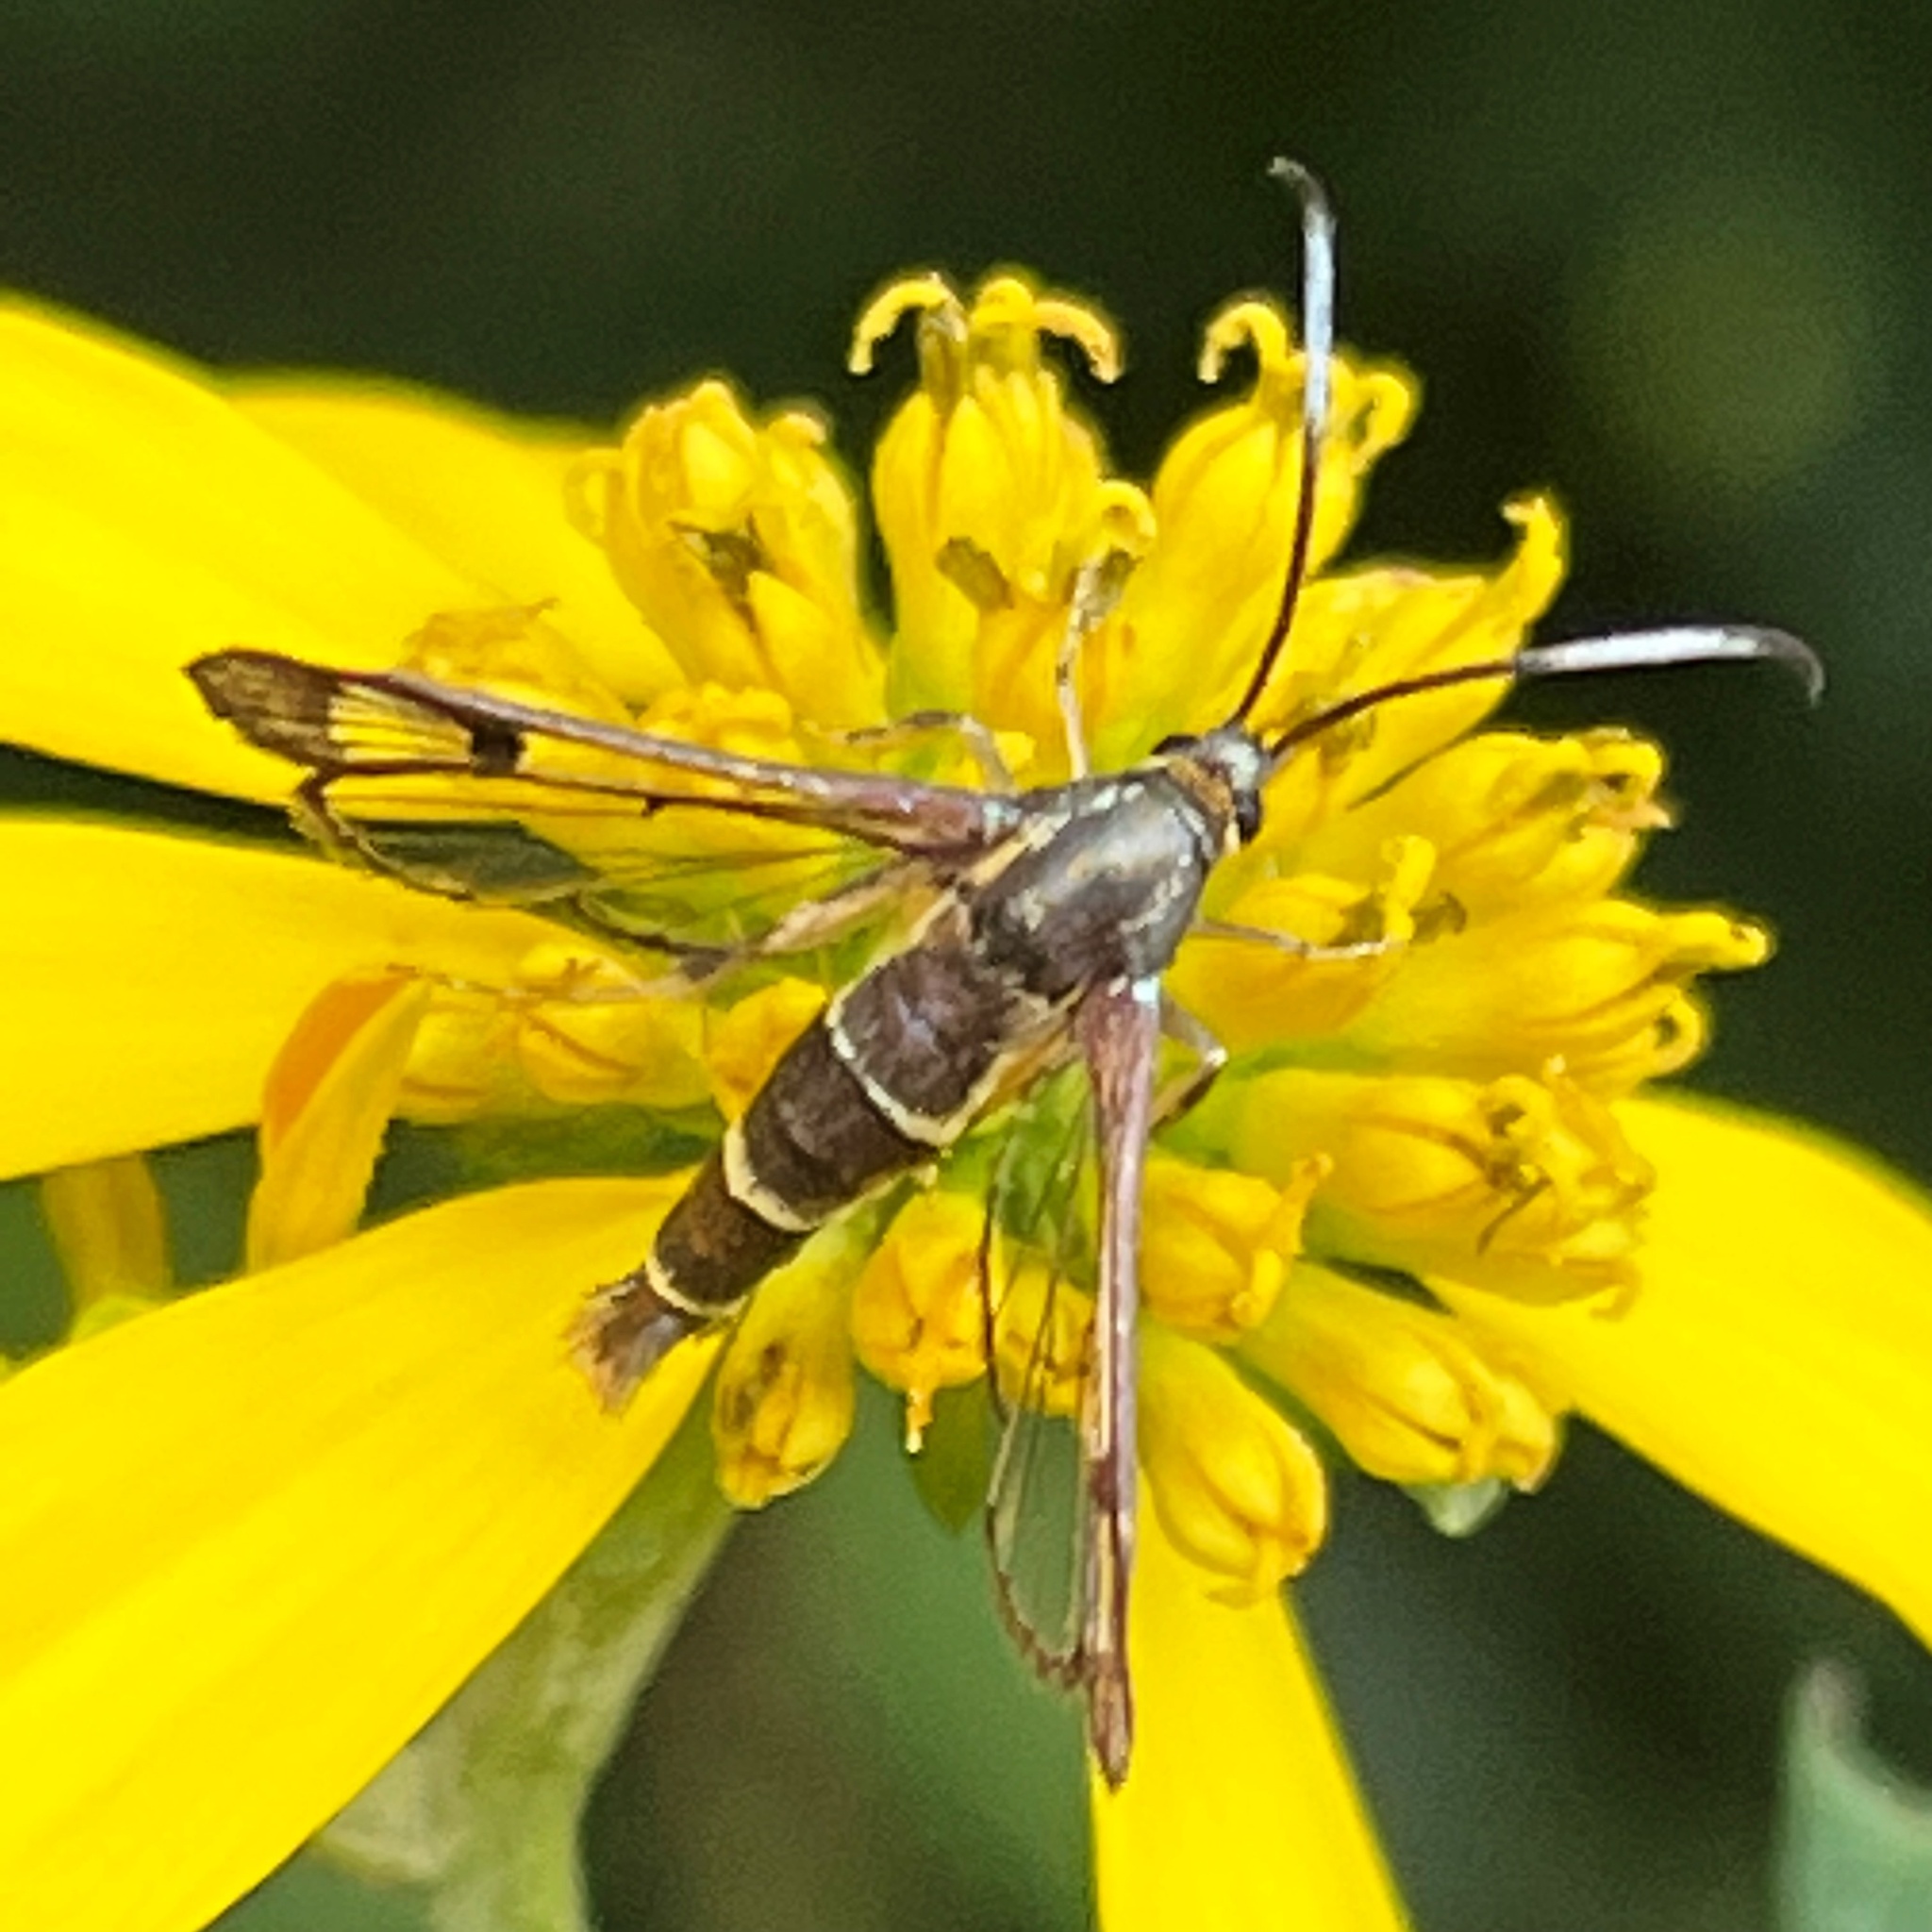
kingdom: Animalia
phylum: Arthropoda
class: Insecta
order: Lepidoptera
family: Sesiidae
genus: Carmenta
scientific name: Carmenta bassiformis
